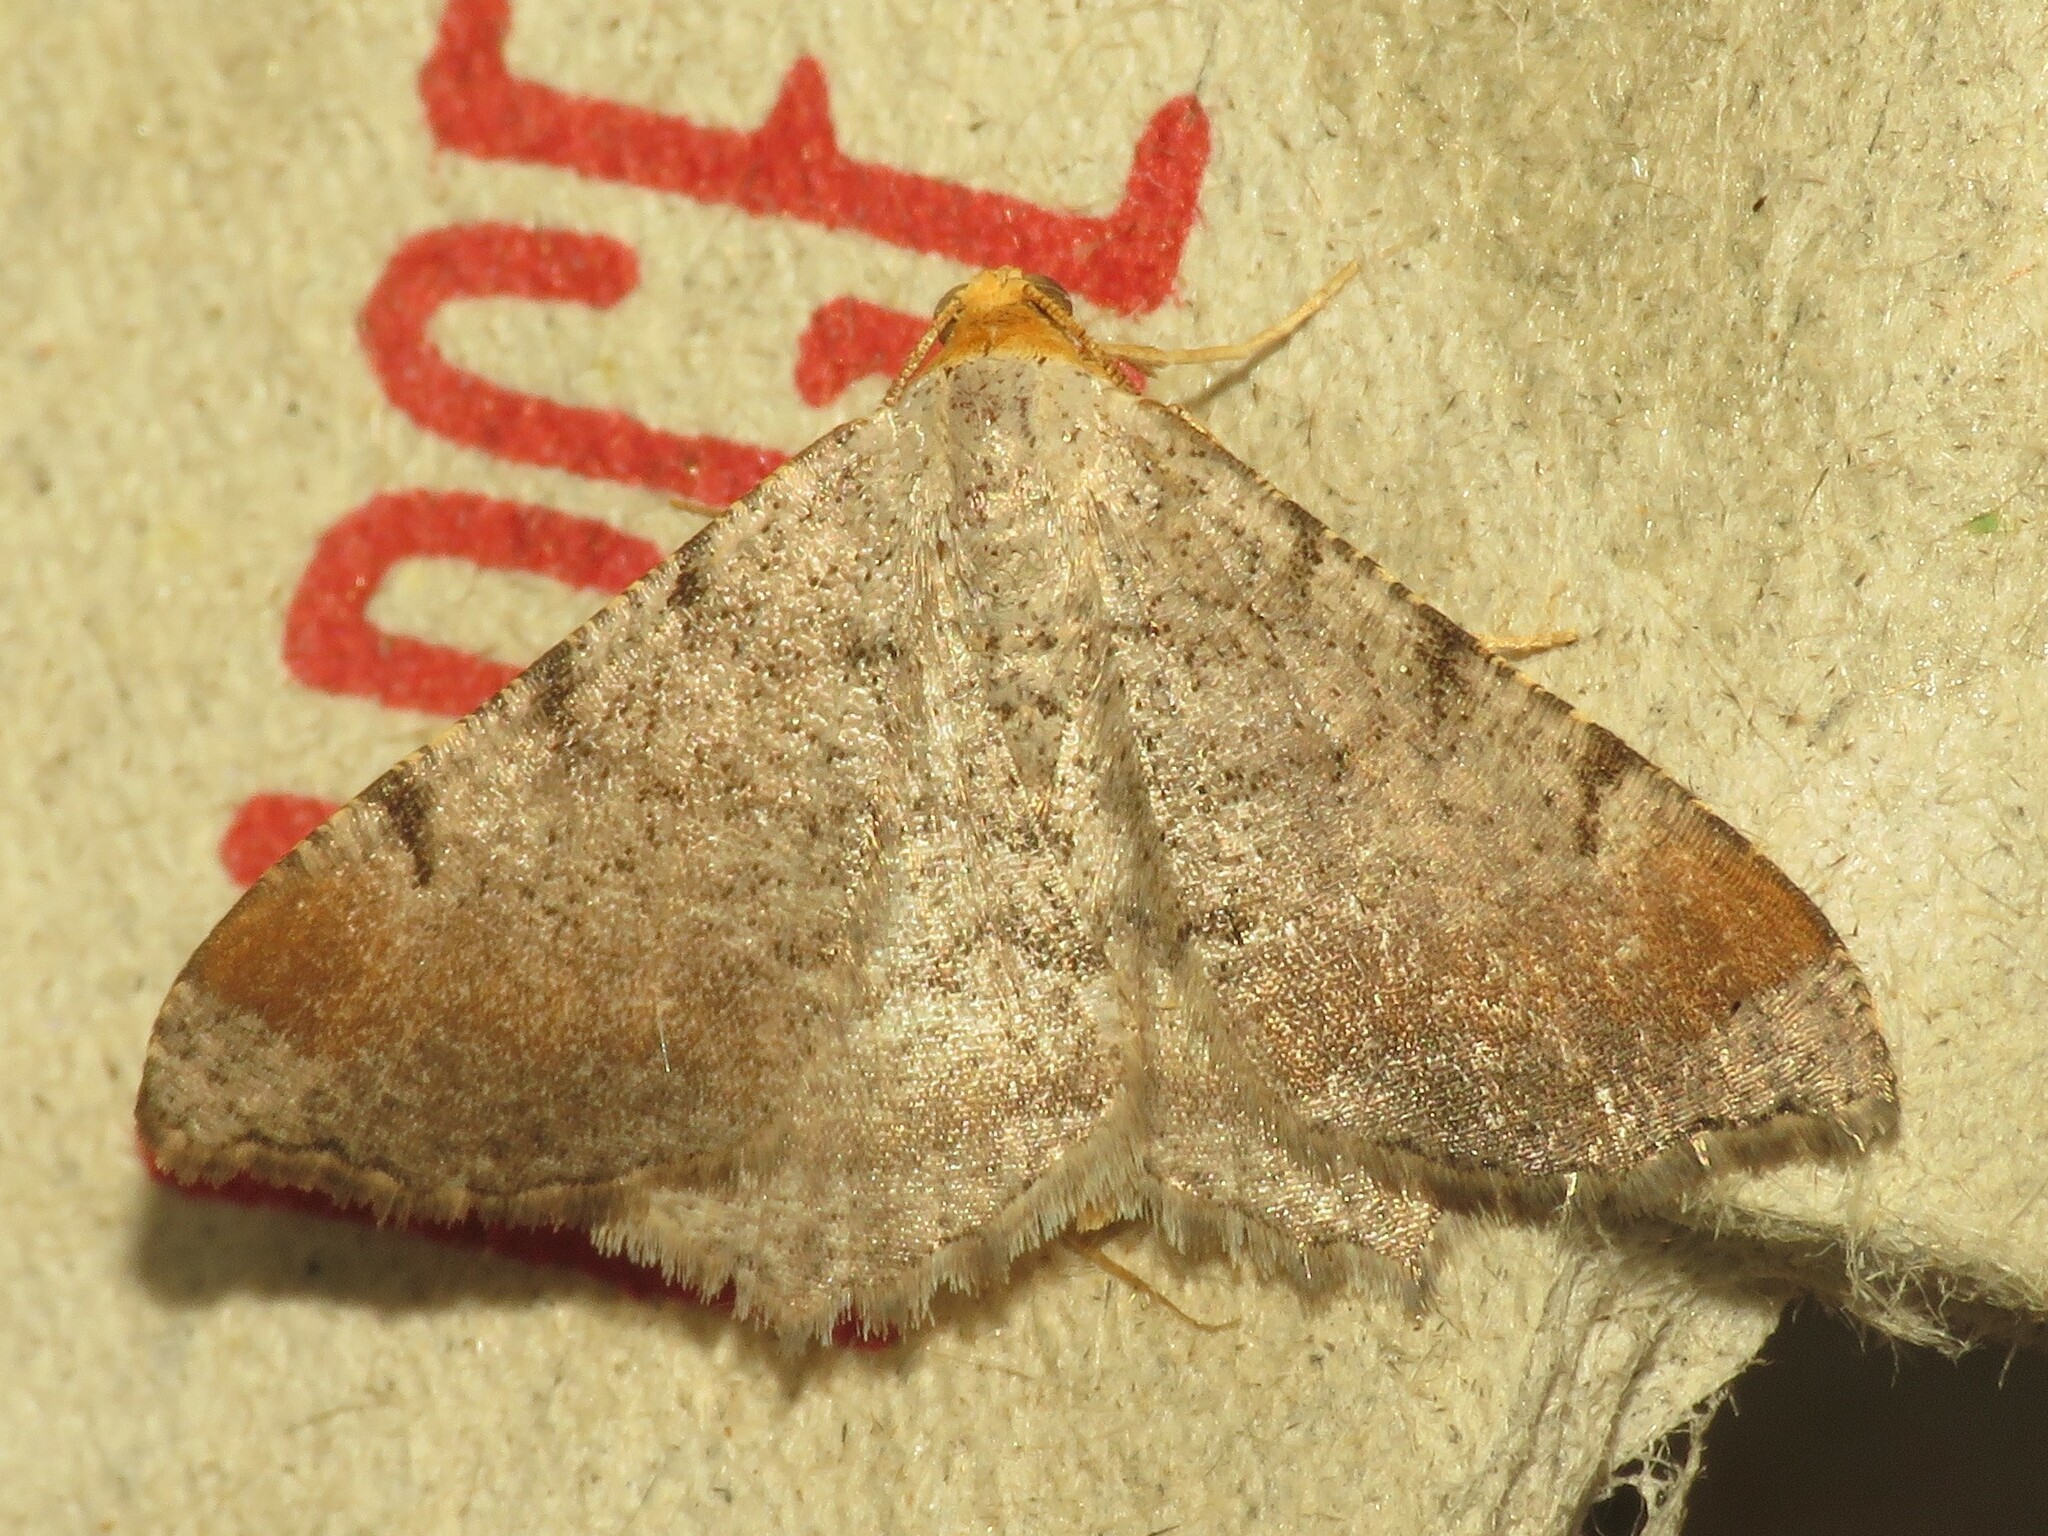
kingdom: Animalia
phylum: Arthropoda
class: Insecta
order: Lepidoptera
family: Geometridae
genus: Macaria
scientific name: Macaria minorata
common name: Minor angle moth
